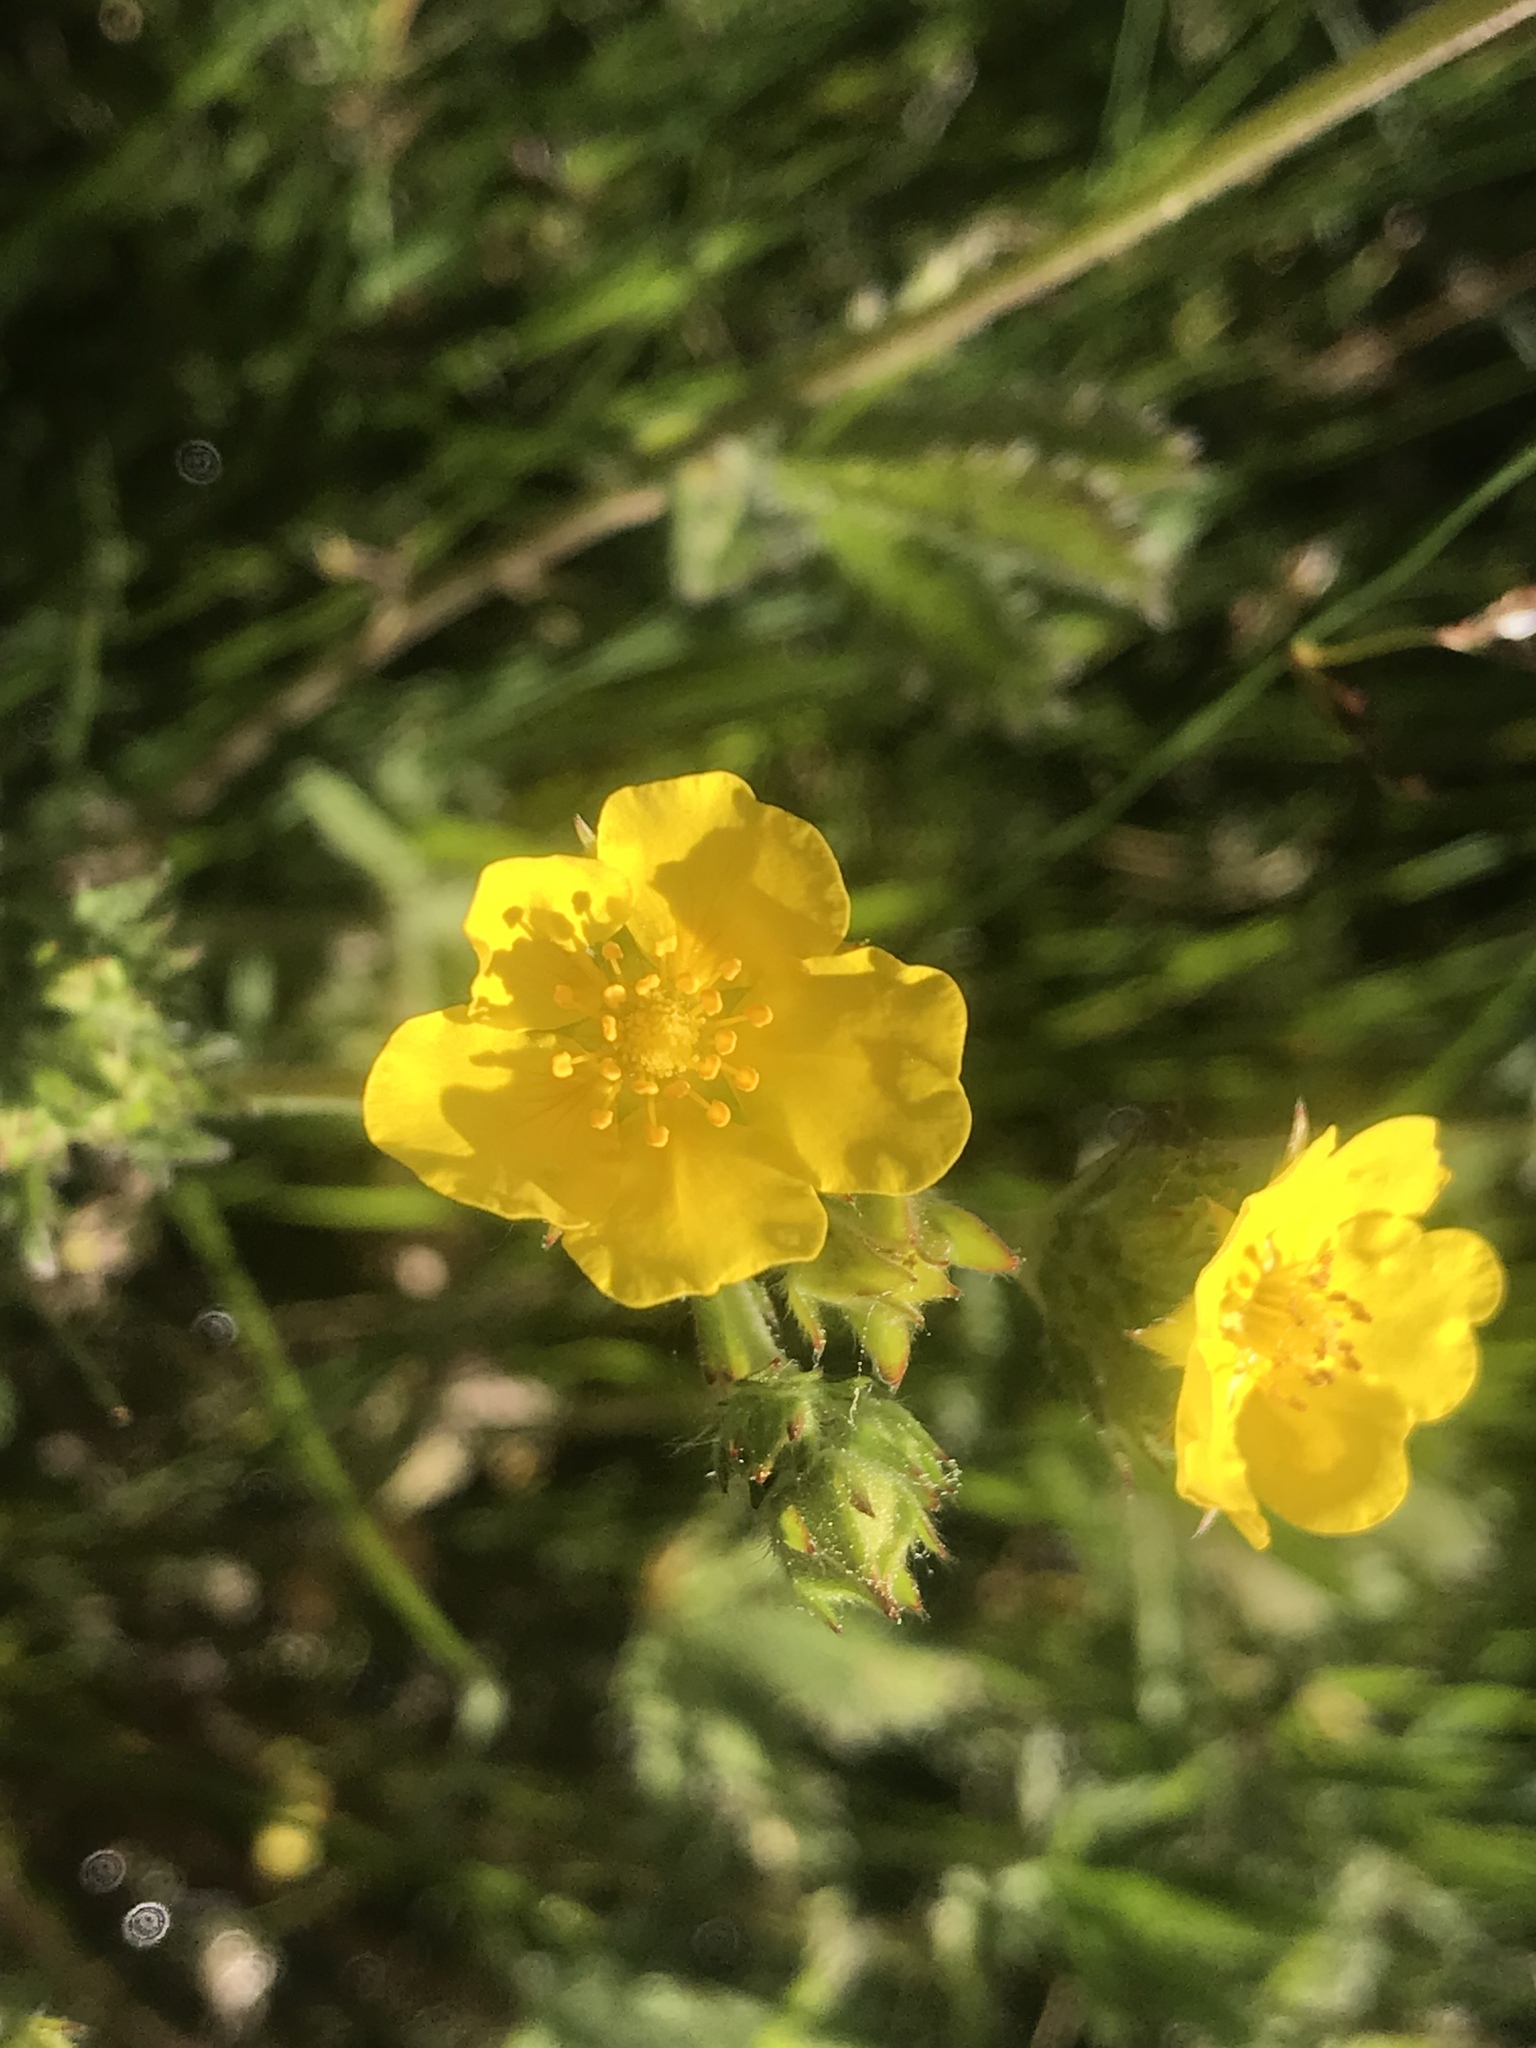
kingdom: Plantae
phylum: Tracheophyta
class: Magnoliopsida
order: Rosales
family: Rosaceae
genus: Potentilla
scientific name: Potentilla gracilis
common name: Graceful cinquefoil
